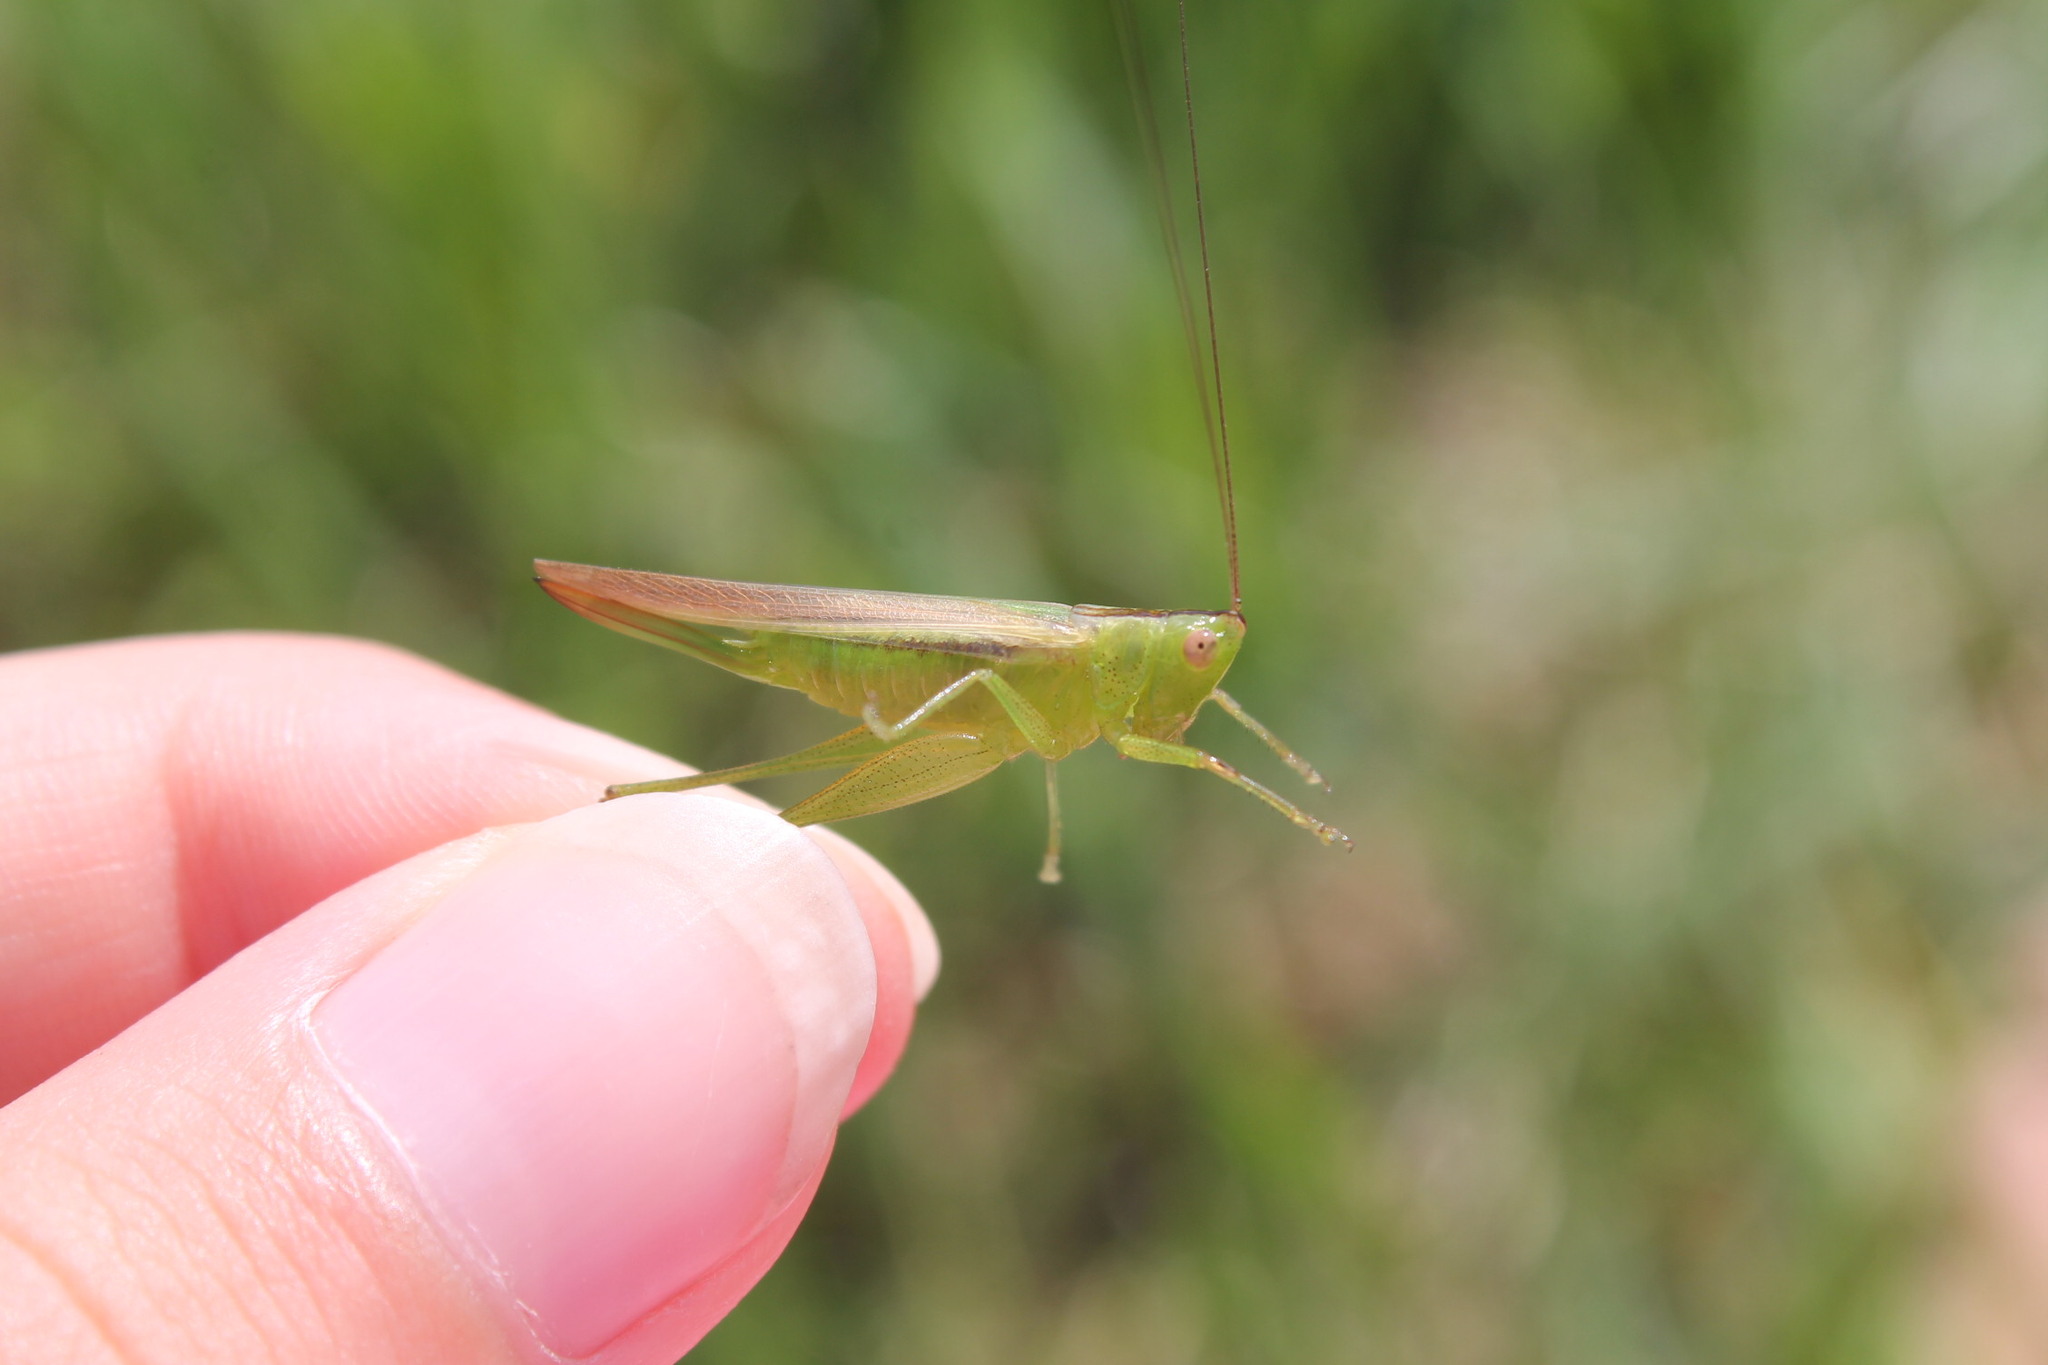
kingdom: Animalia
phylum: Arthropoda
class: Insecta
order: Orthoptera
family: Tettigoniidae
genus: Conocephalus
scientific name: Conocephalus fasciatus
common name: Slender meadow katydid
